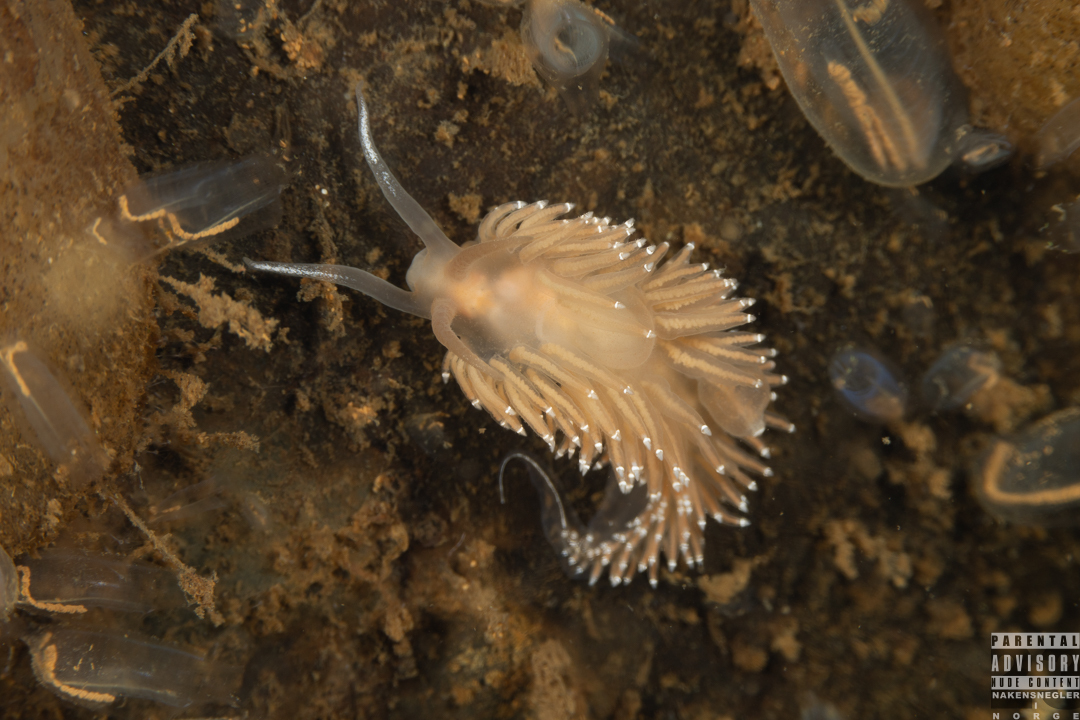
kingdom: Animalia
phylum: Mollusca
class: Gastropoda
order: Nudibranchia
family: Coryphellidae
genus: Coryphella
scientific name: Coryphella borealis
